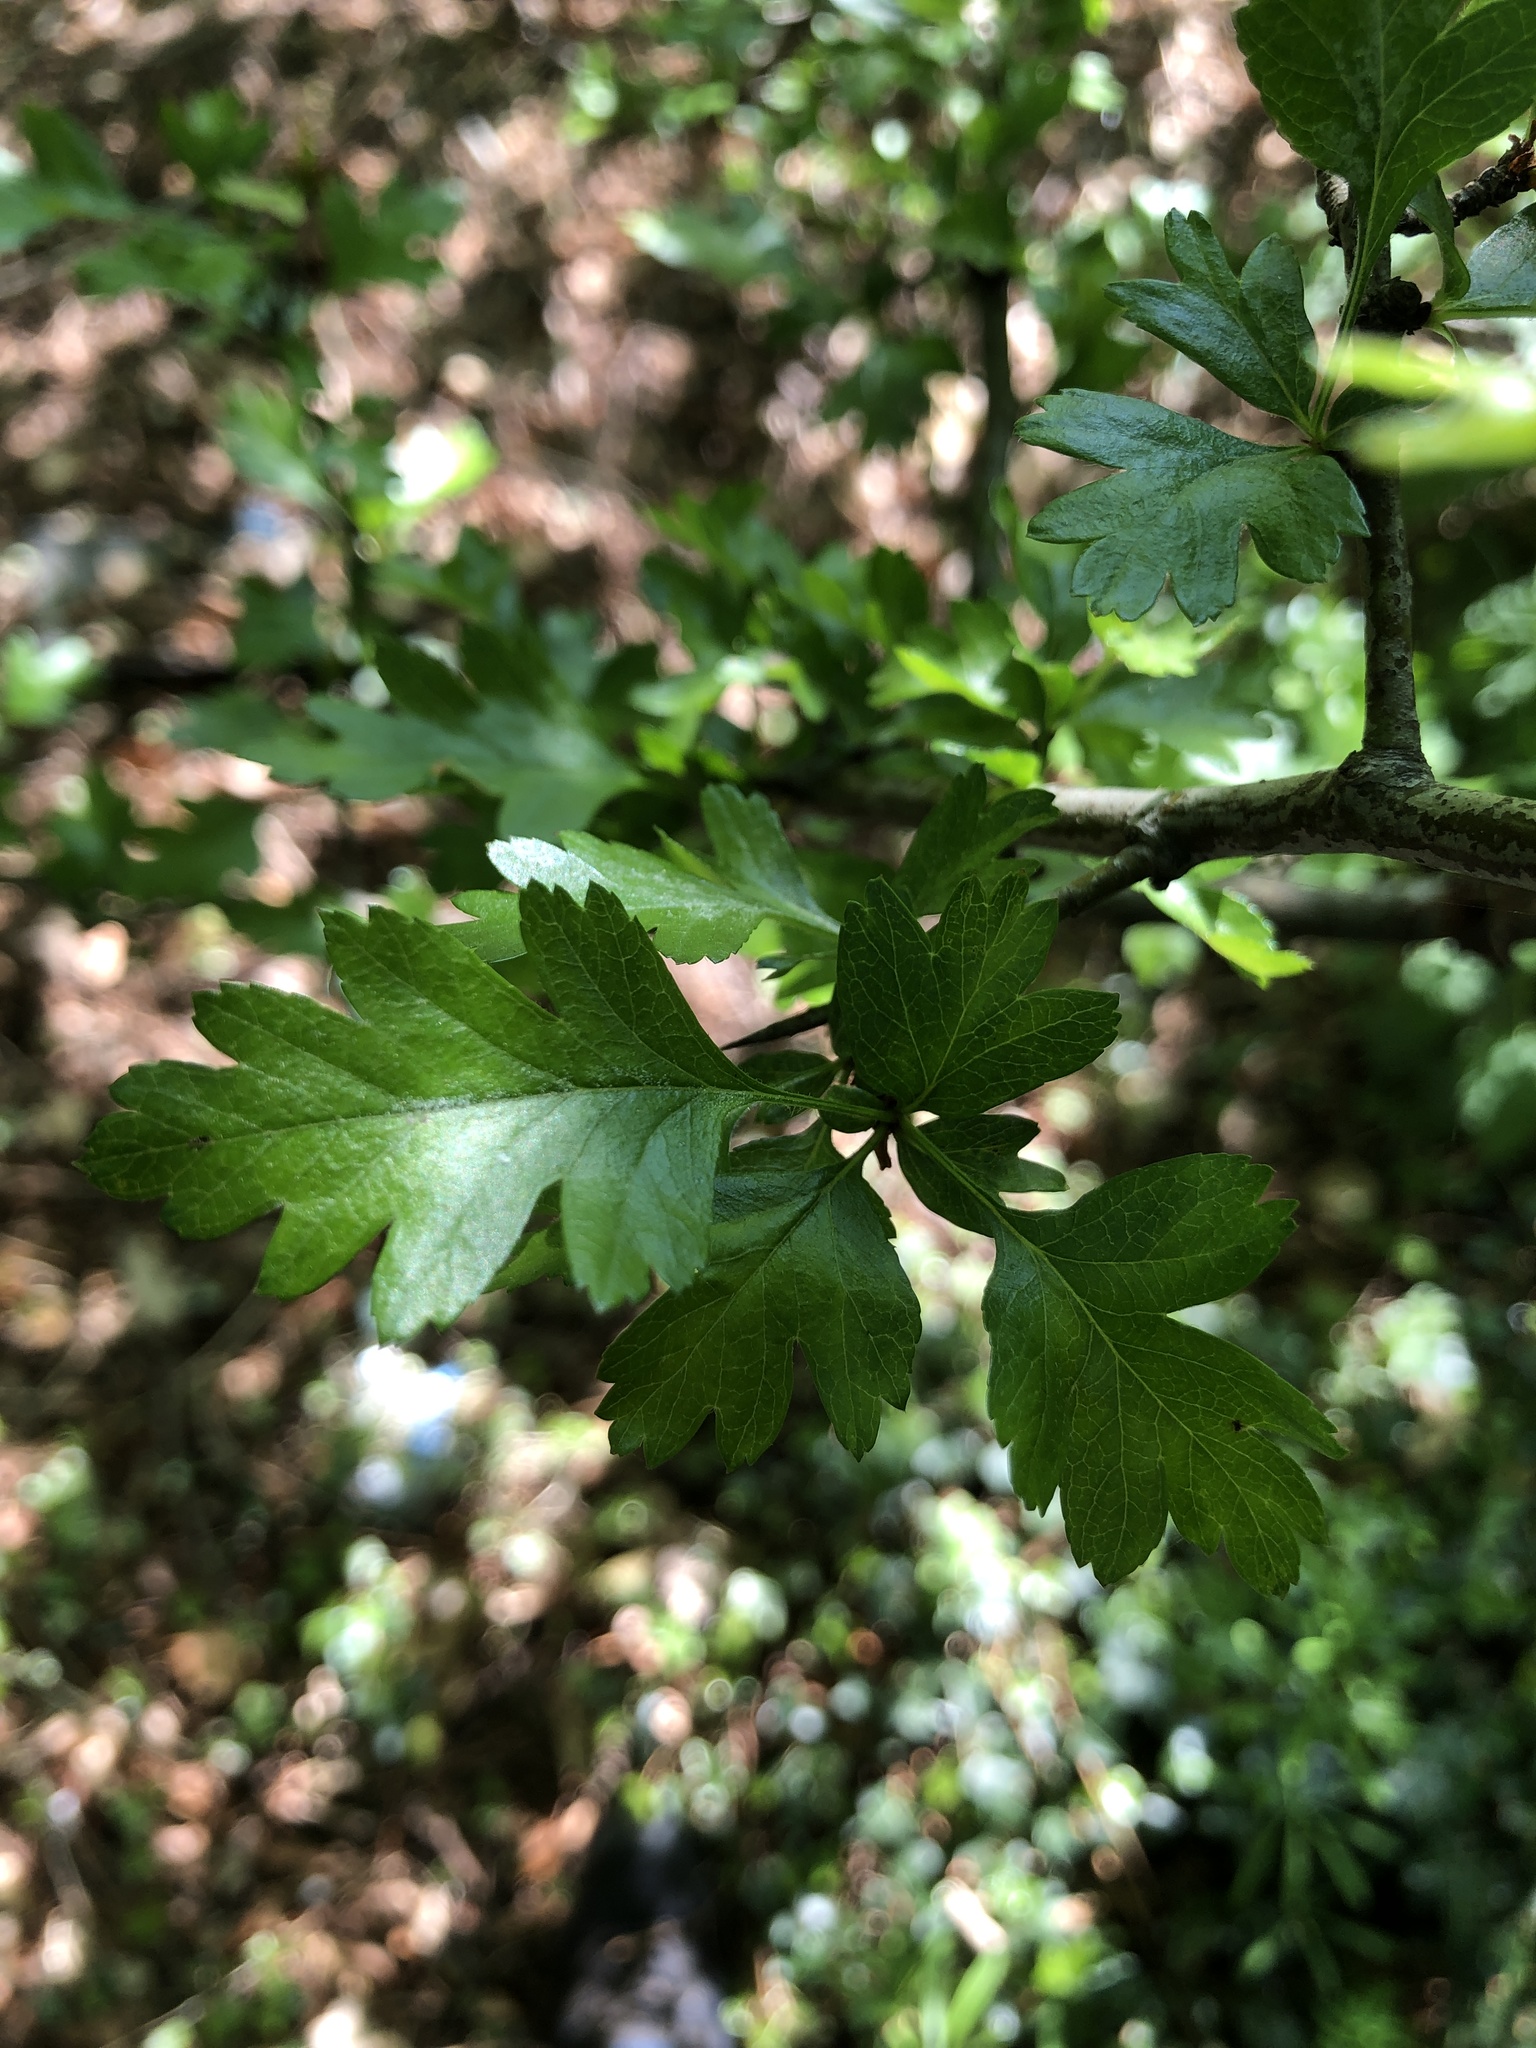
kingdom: Plantae
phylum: Tracheophyta
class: Magnoliopsida
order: Rosales
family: Rosaceae
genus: Crataegus
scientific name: Crataegus monogyna
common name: Hawthorn
